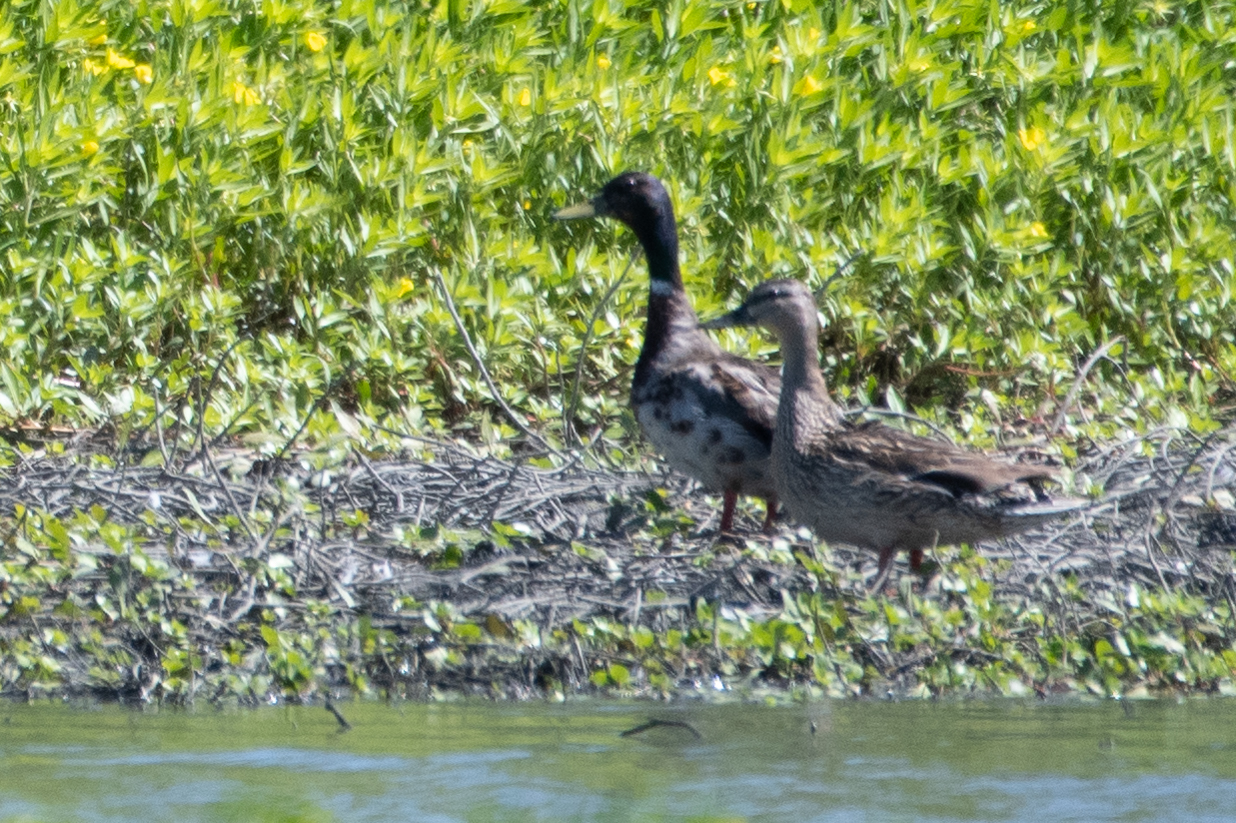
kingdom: Animalia
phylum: Chordata
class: Aves
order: Anseriformes
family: Anatidae
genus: Anas
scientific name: Anas platyrhynchos
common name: Mallard
